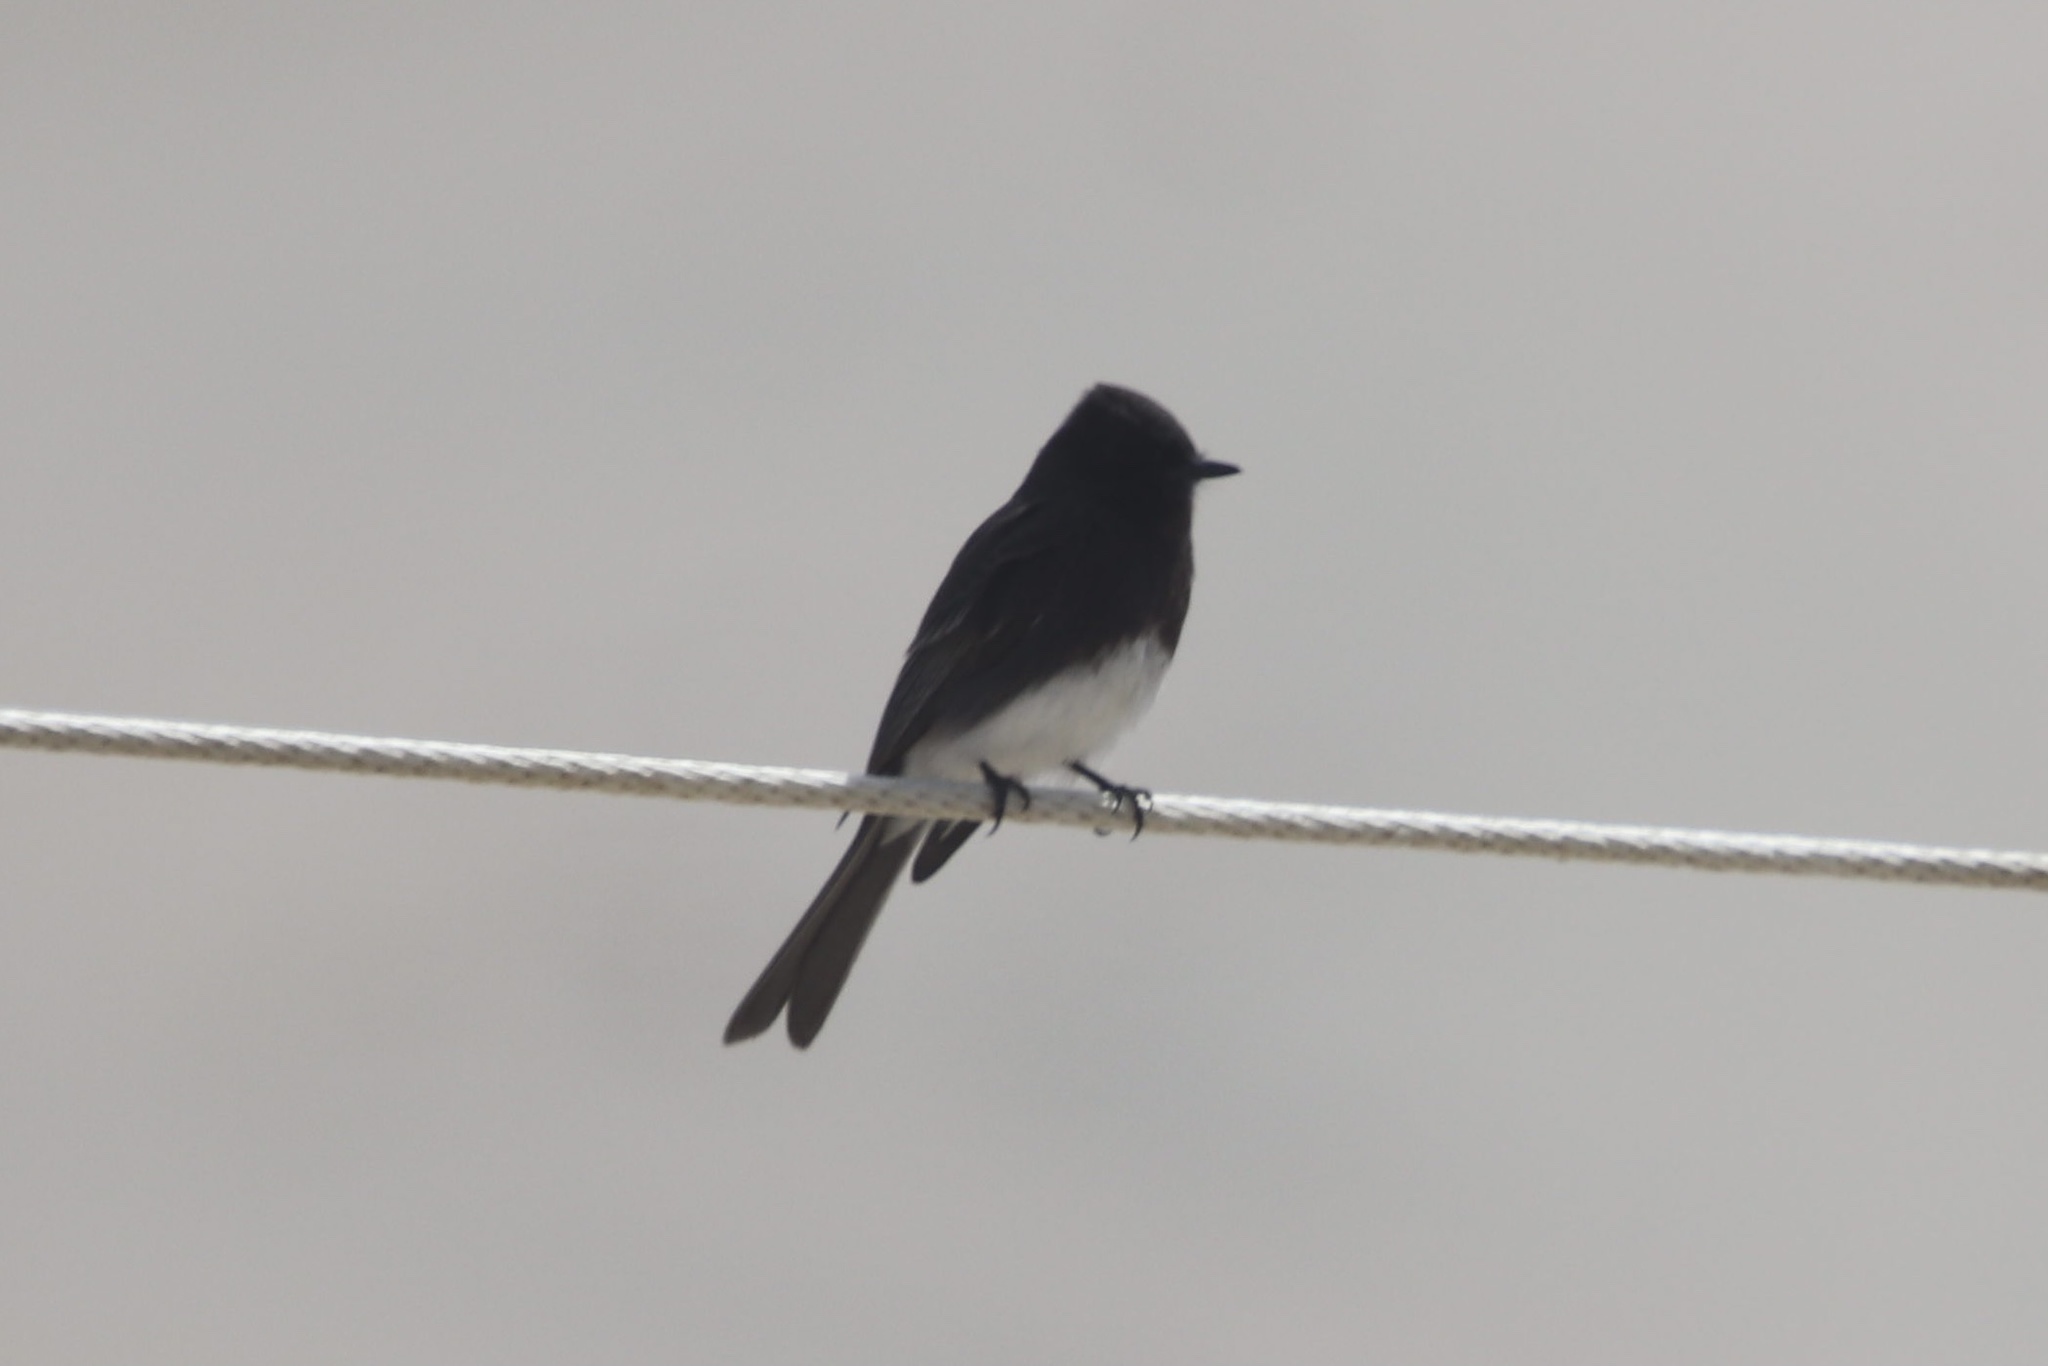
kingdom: Animalia
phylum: Chordata
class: Aves
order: Passeriformes
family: Tyrannidae
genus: Sayornis
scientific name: Sayornis nigricans
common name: Black phoebe
